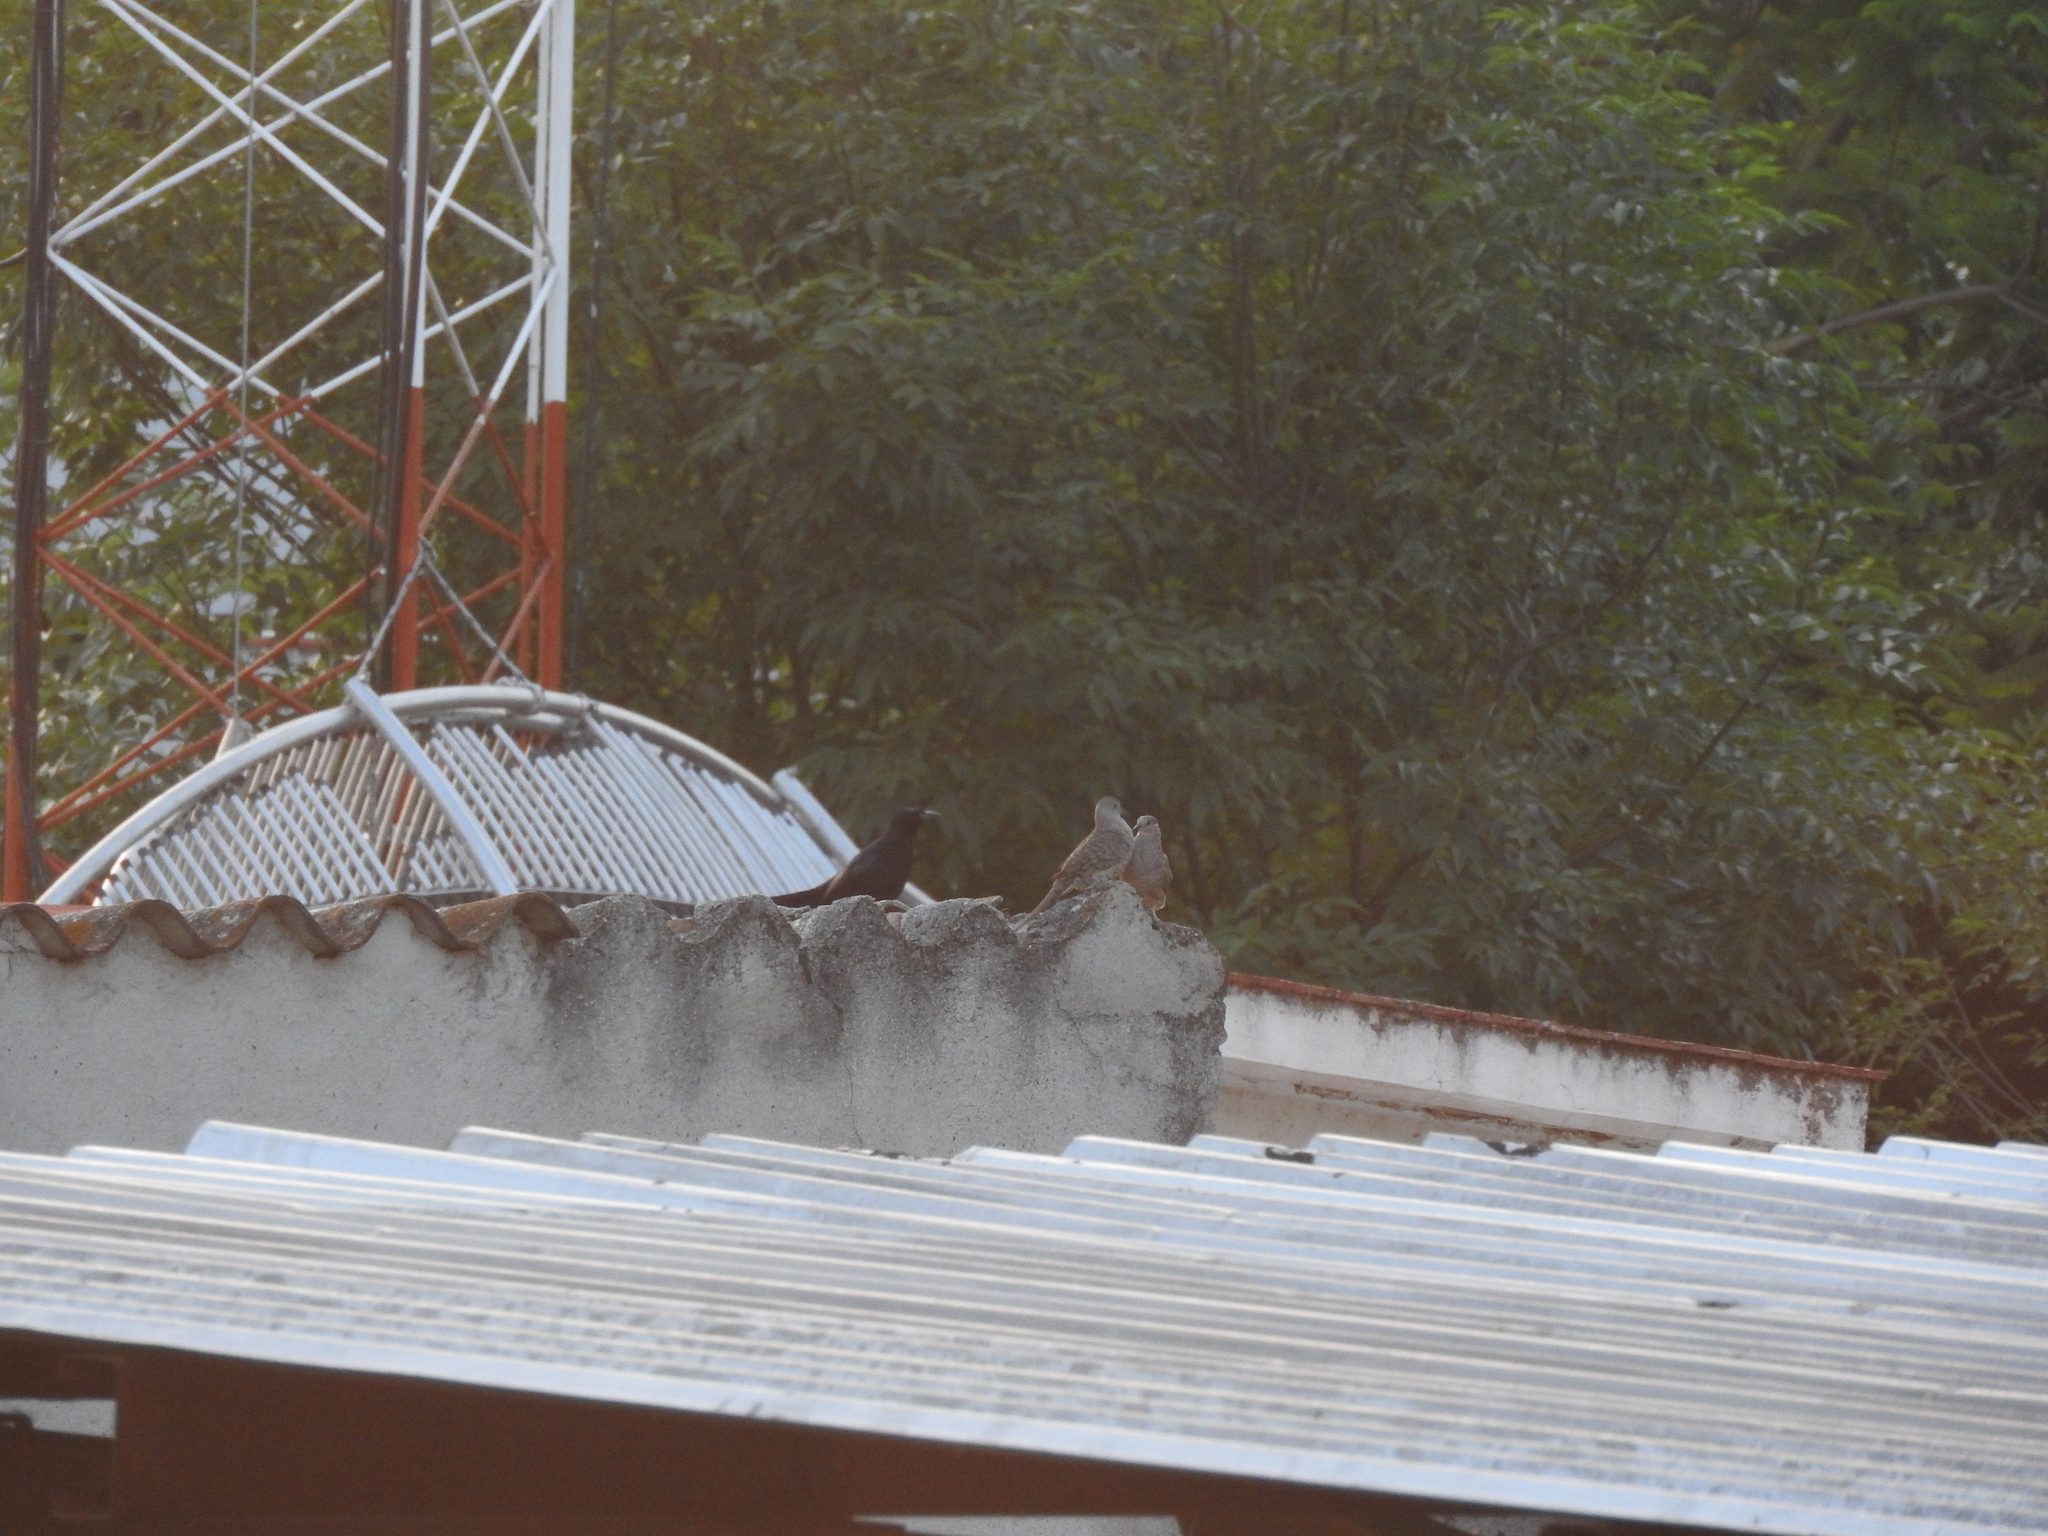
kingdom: Animalia
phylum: Chordata
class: Aves
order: Passeriformes
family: Icteridae
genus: Quiscalus
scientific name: Quiscalus mexicanus
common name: Great-tailed grackle
